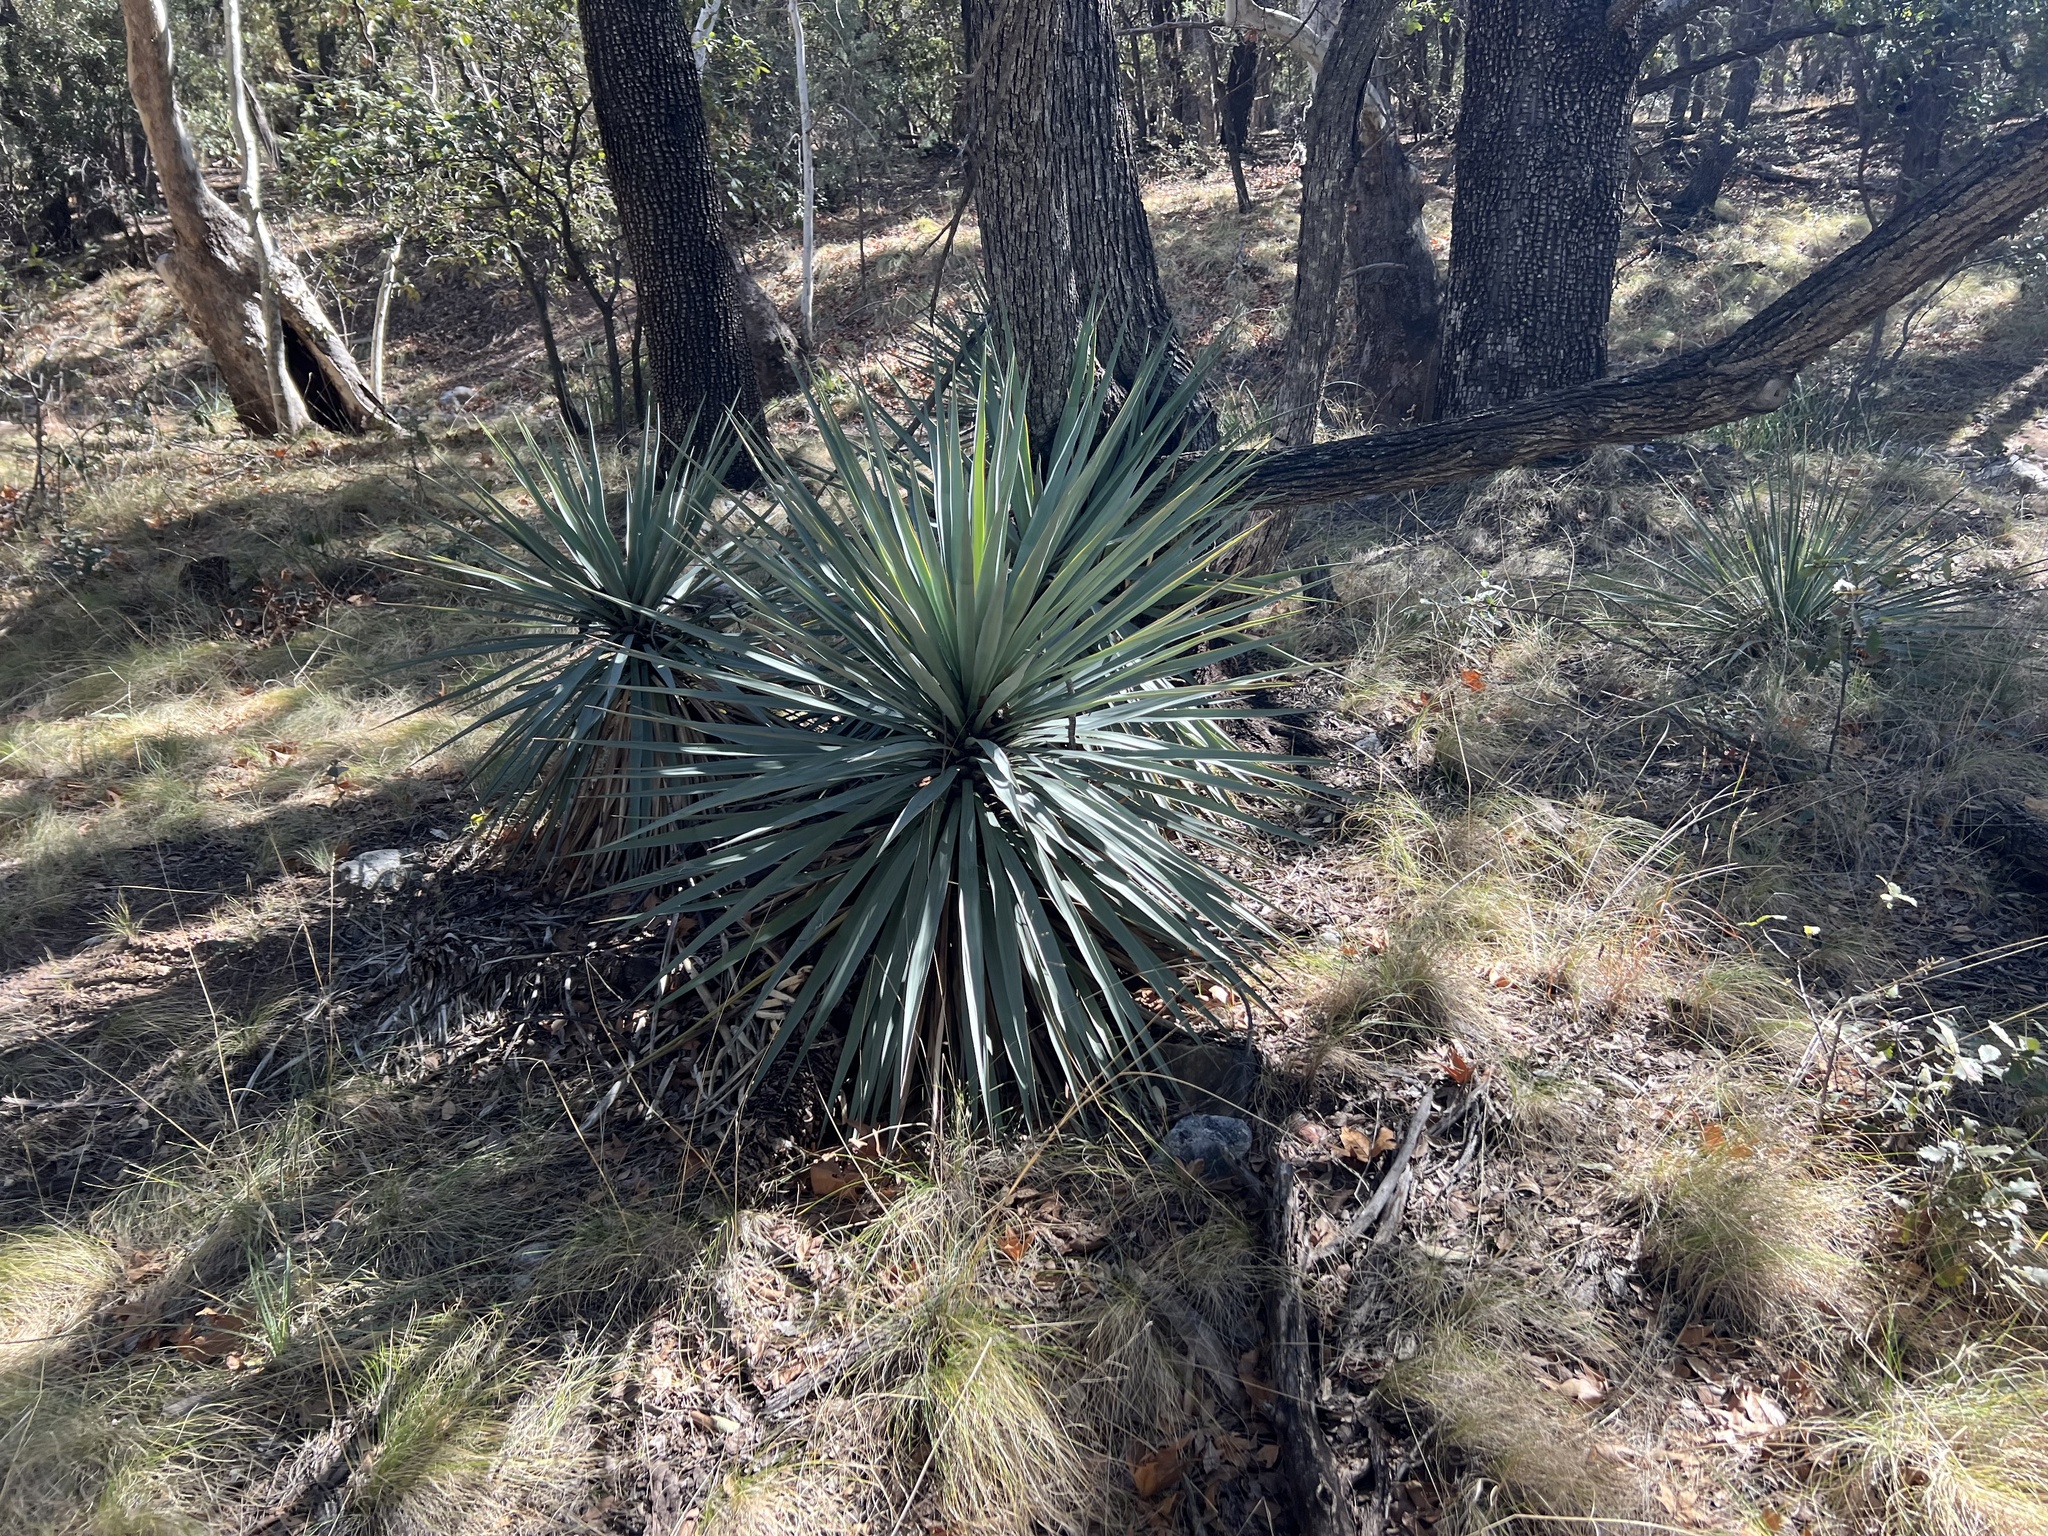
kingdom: Plantae
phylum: Tracheophyta
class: Liliopsida
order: Asparagales
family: Asparagaceae
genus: Yucca
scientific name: Yucca schottii
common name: Hoary yucca
